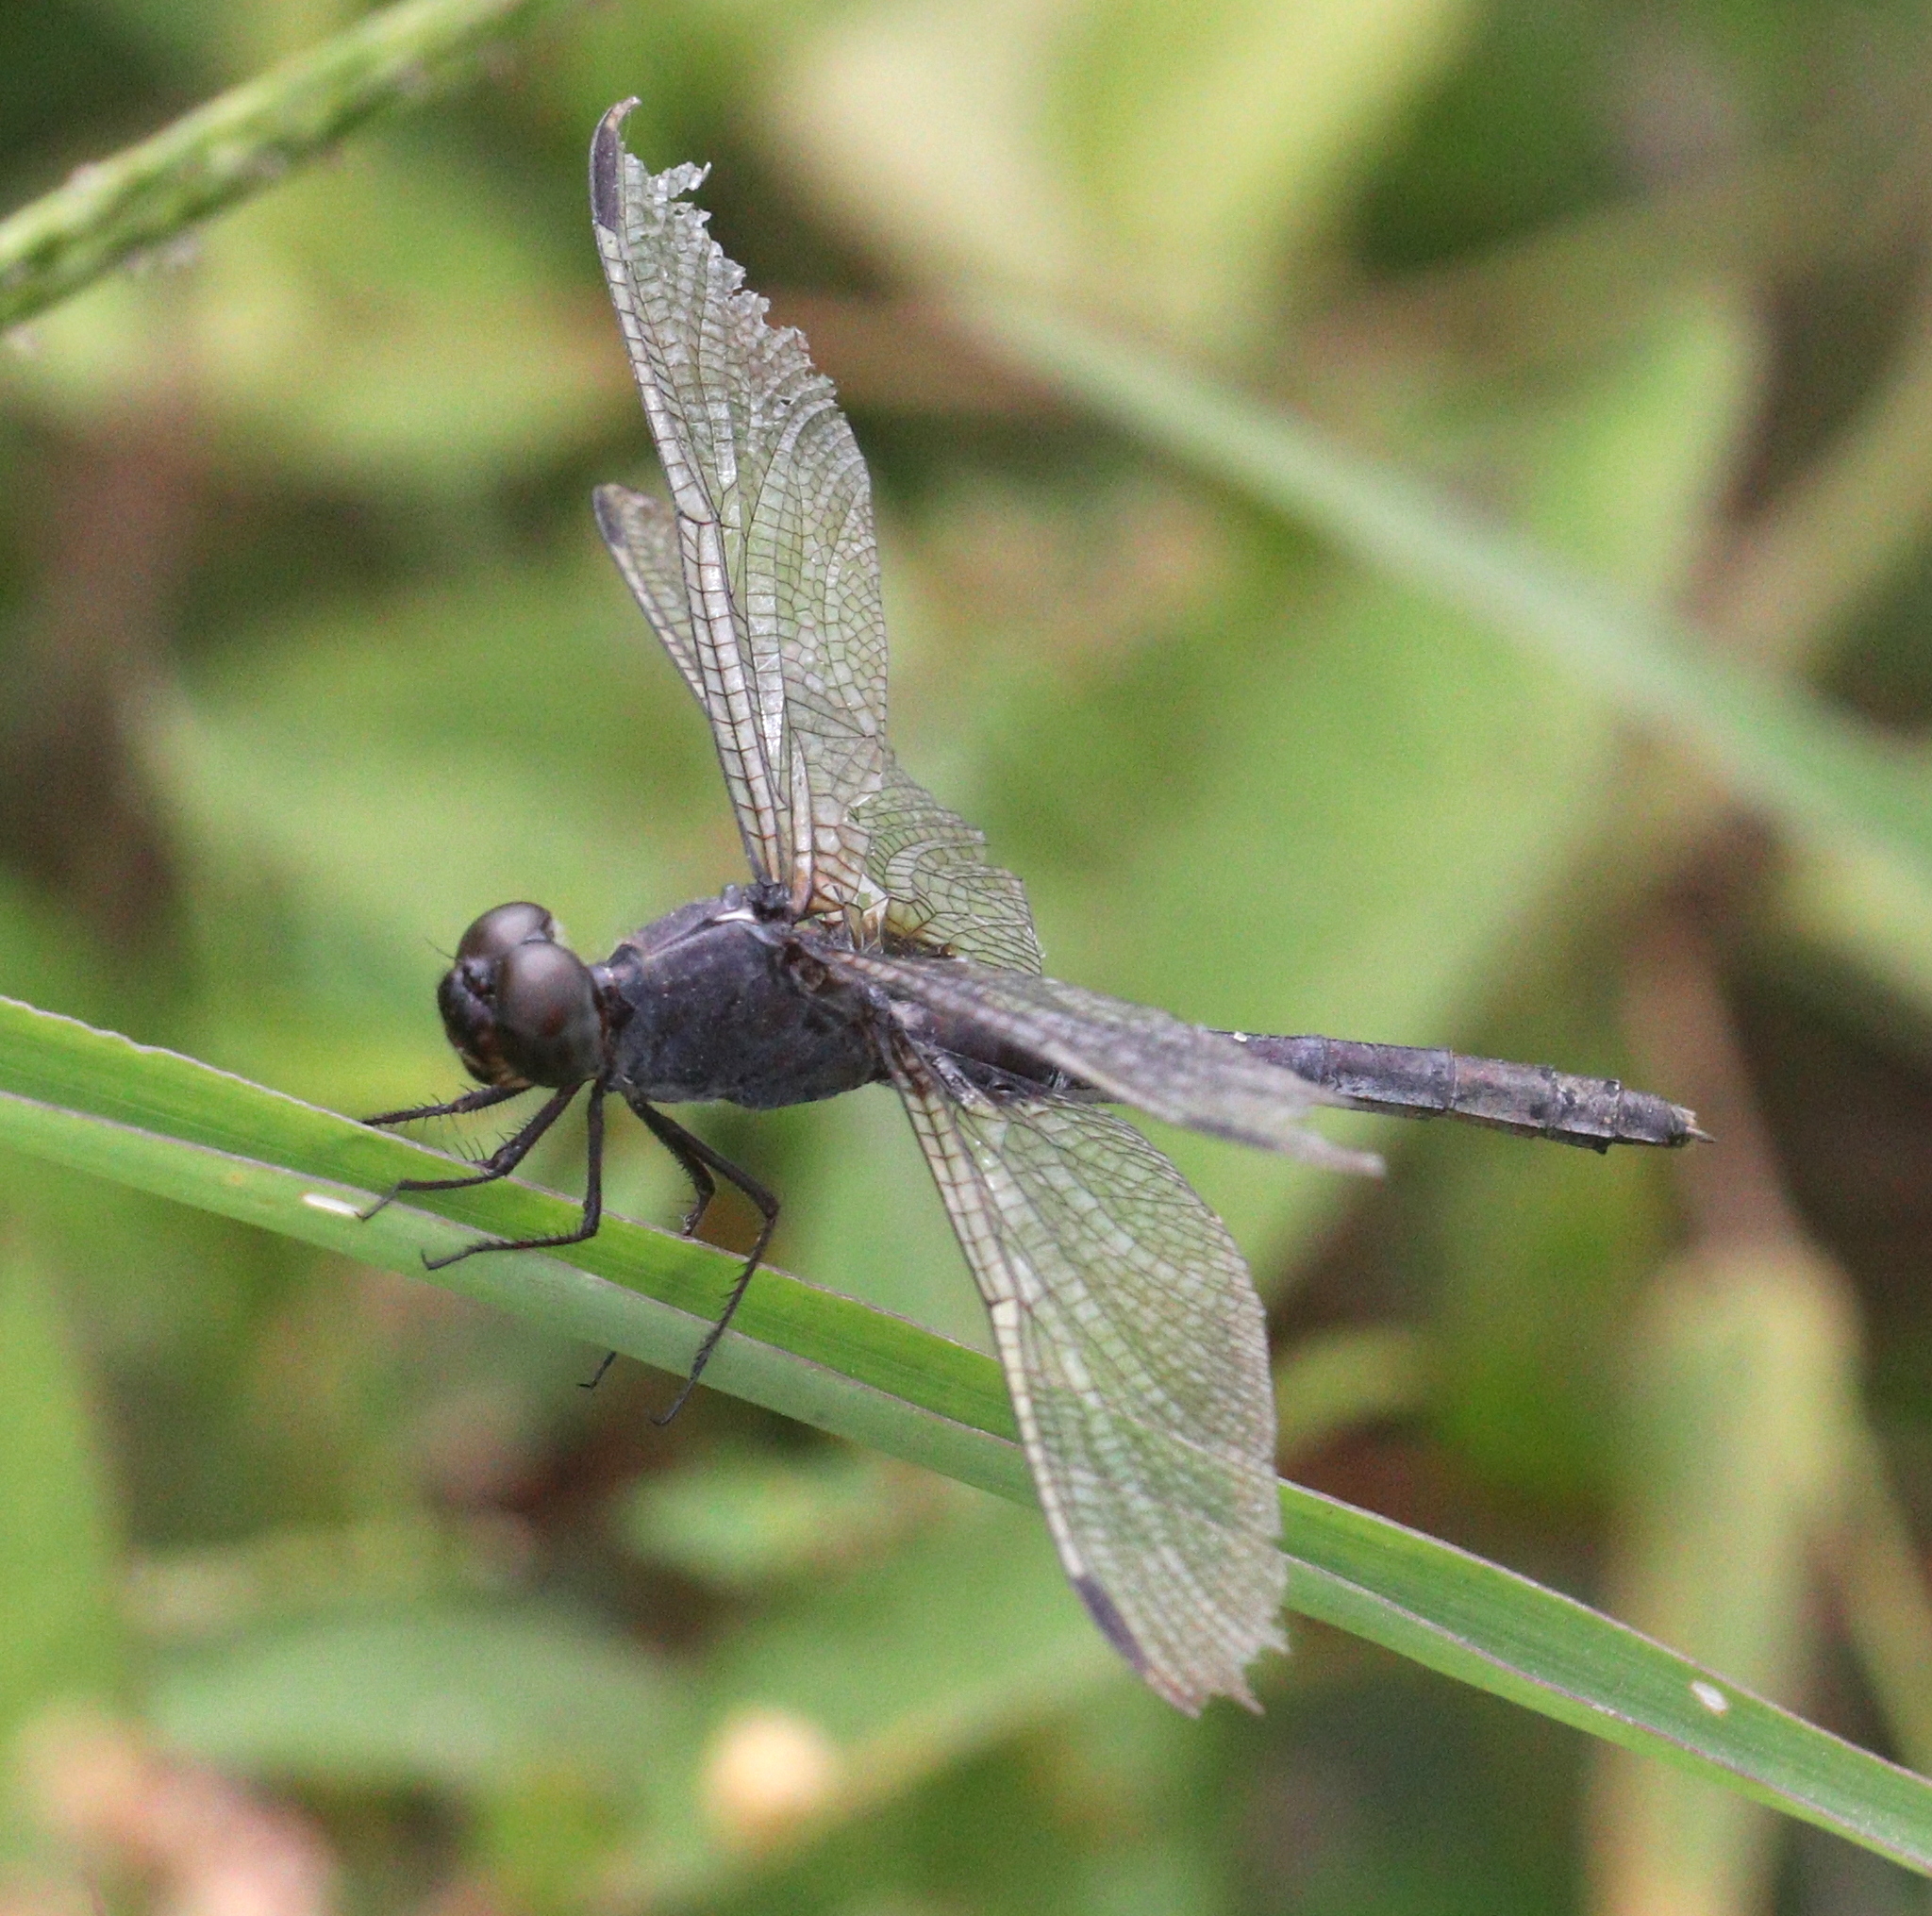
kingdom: Animalia
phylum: Arthropoda
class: Insecta
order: Odonata
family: Libellulidae
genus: Erythrodiplax
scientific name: Erythrodiplax funerea
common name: Black-winged dragonlet
